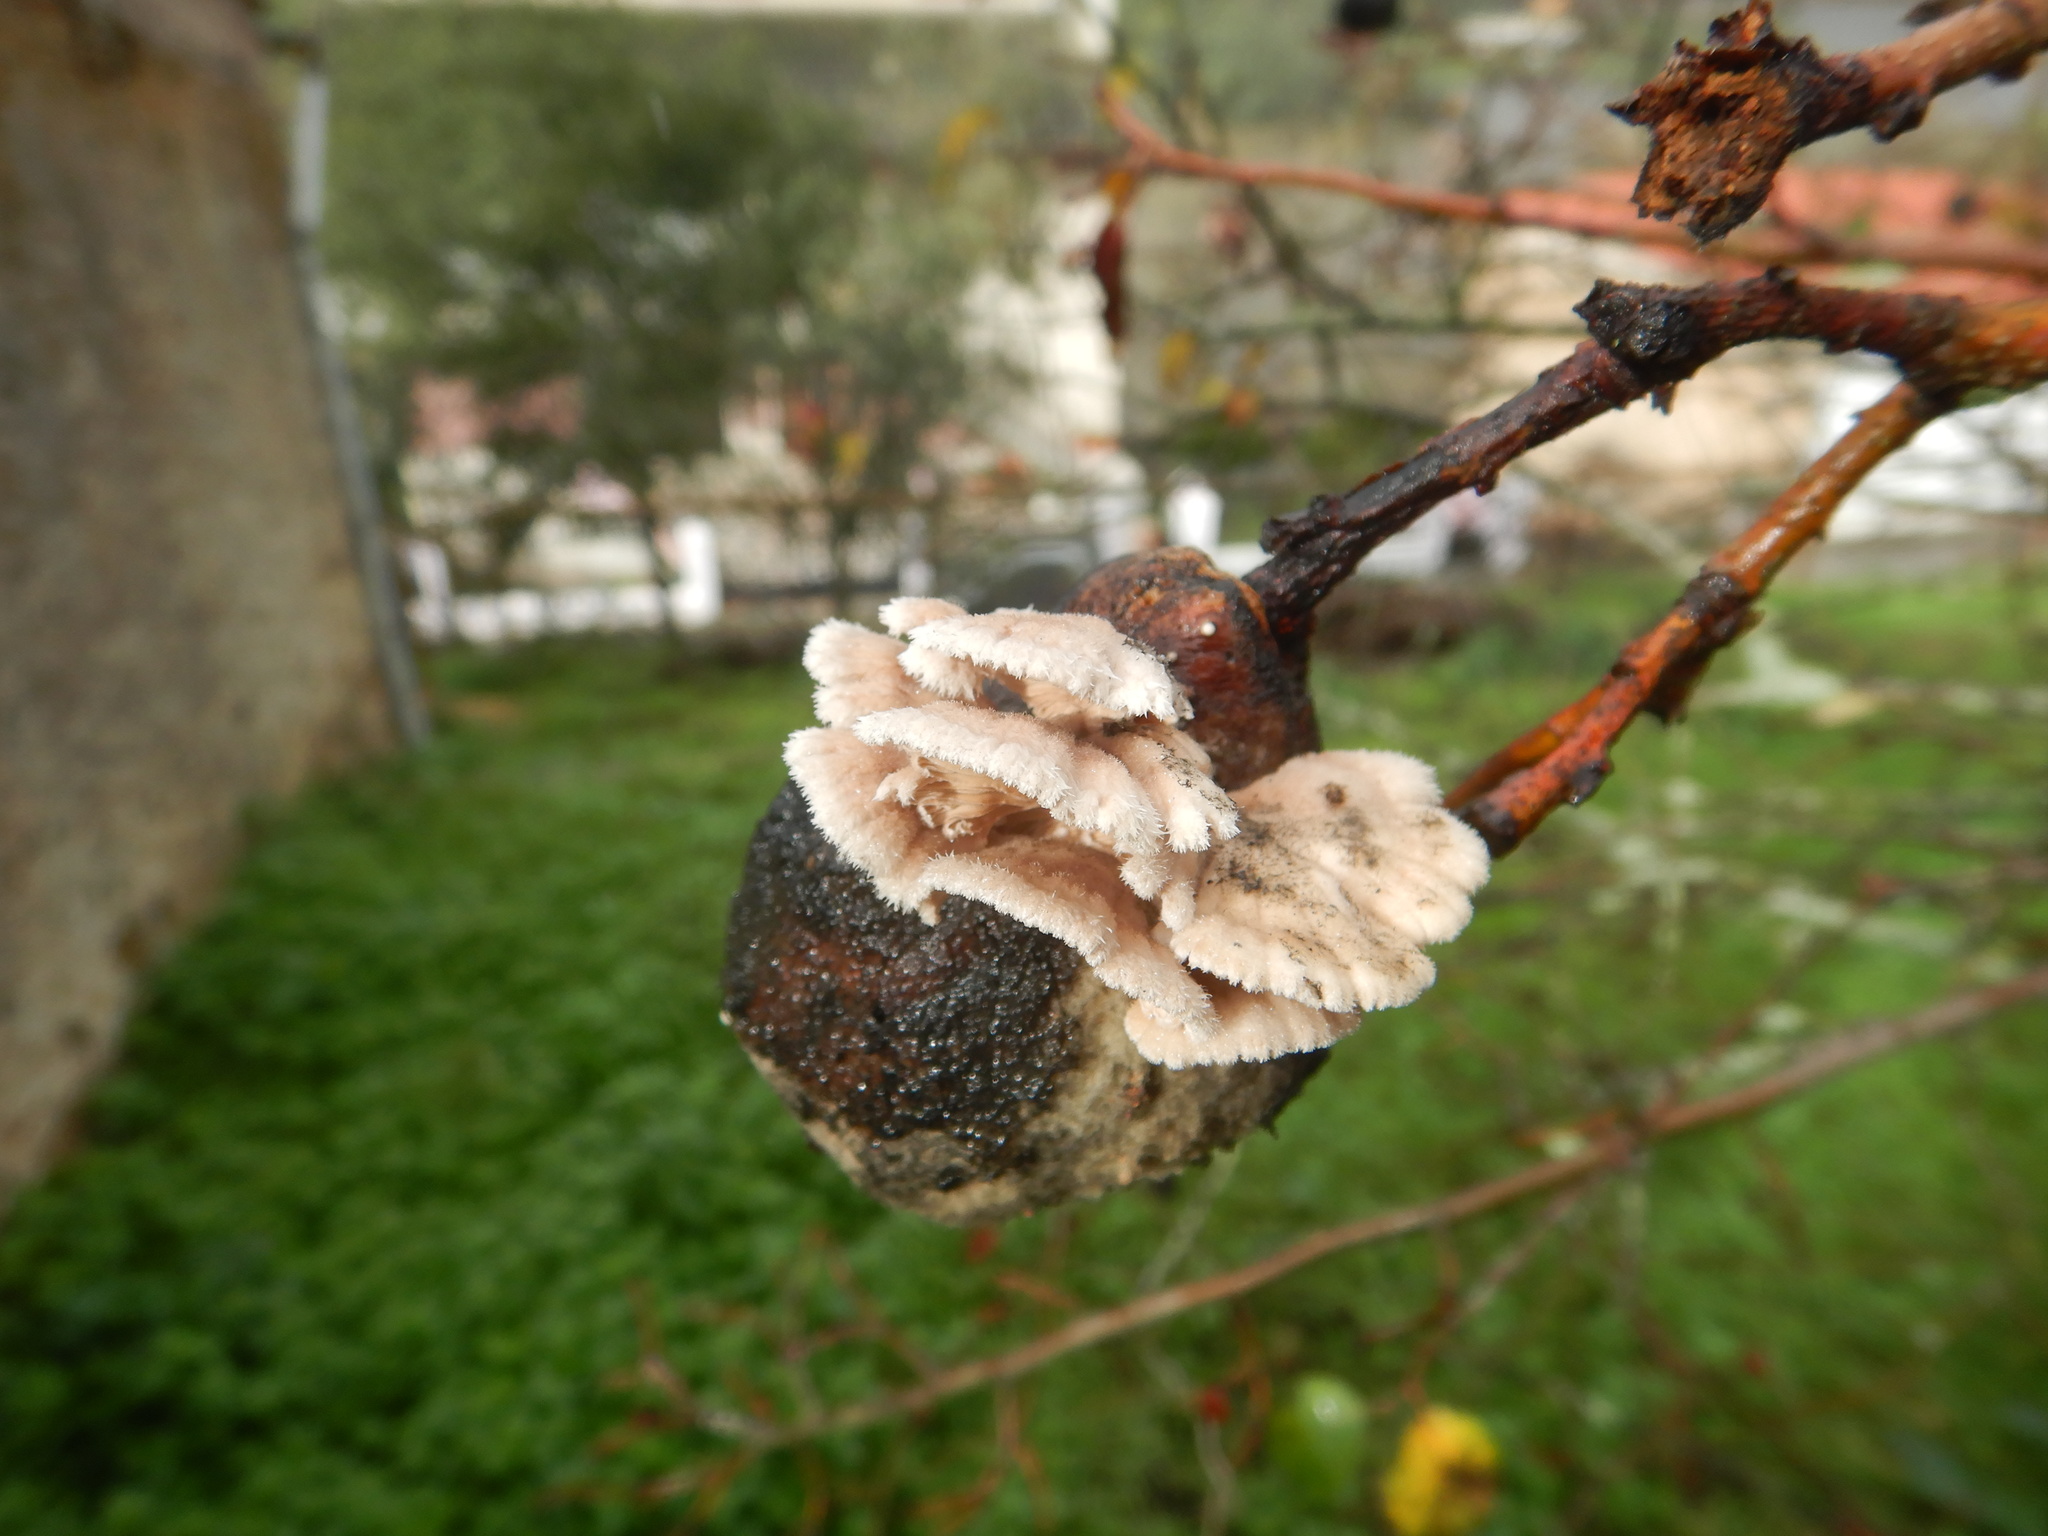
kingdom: Fungi
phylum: Basidiomycota
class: Agaricomycetes
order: Agaricales
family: Schizophyllaceae
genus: Schizophyllum
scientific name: Schizophyllum commune
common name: Common porecrust
